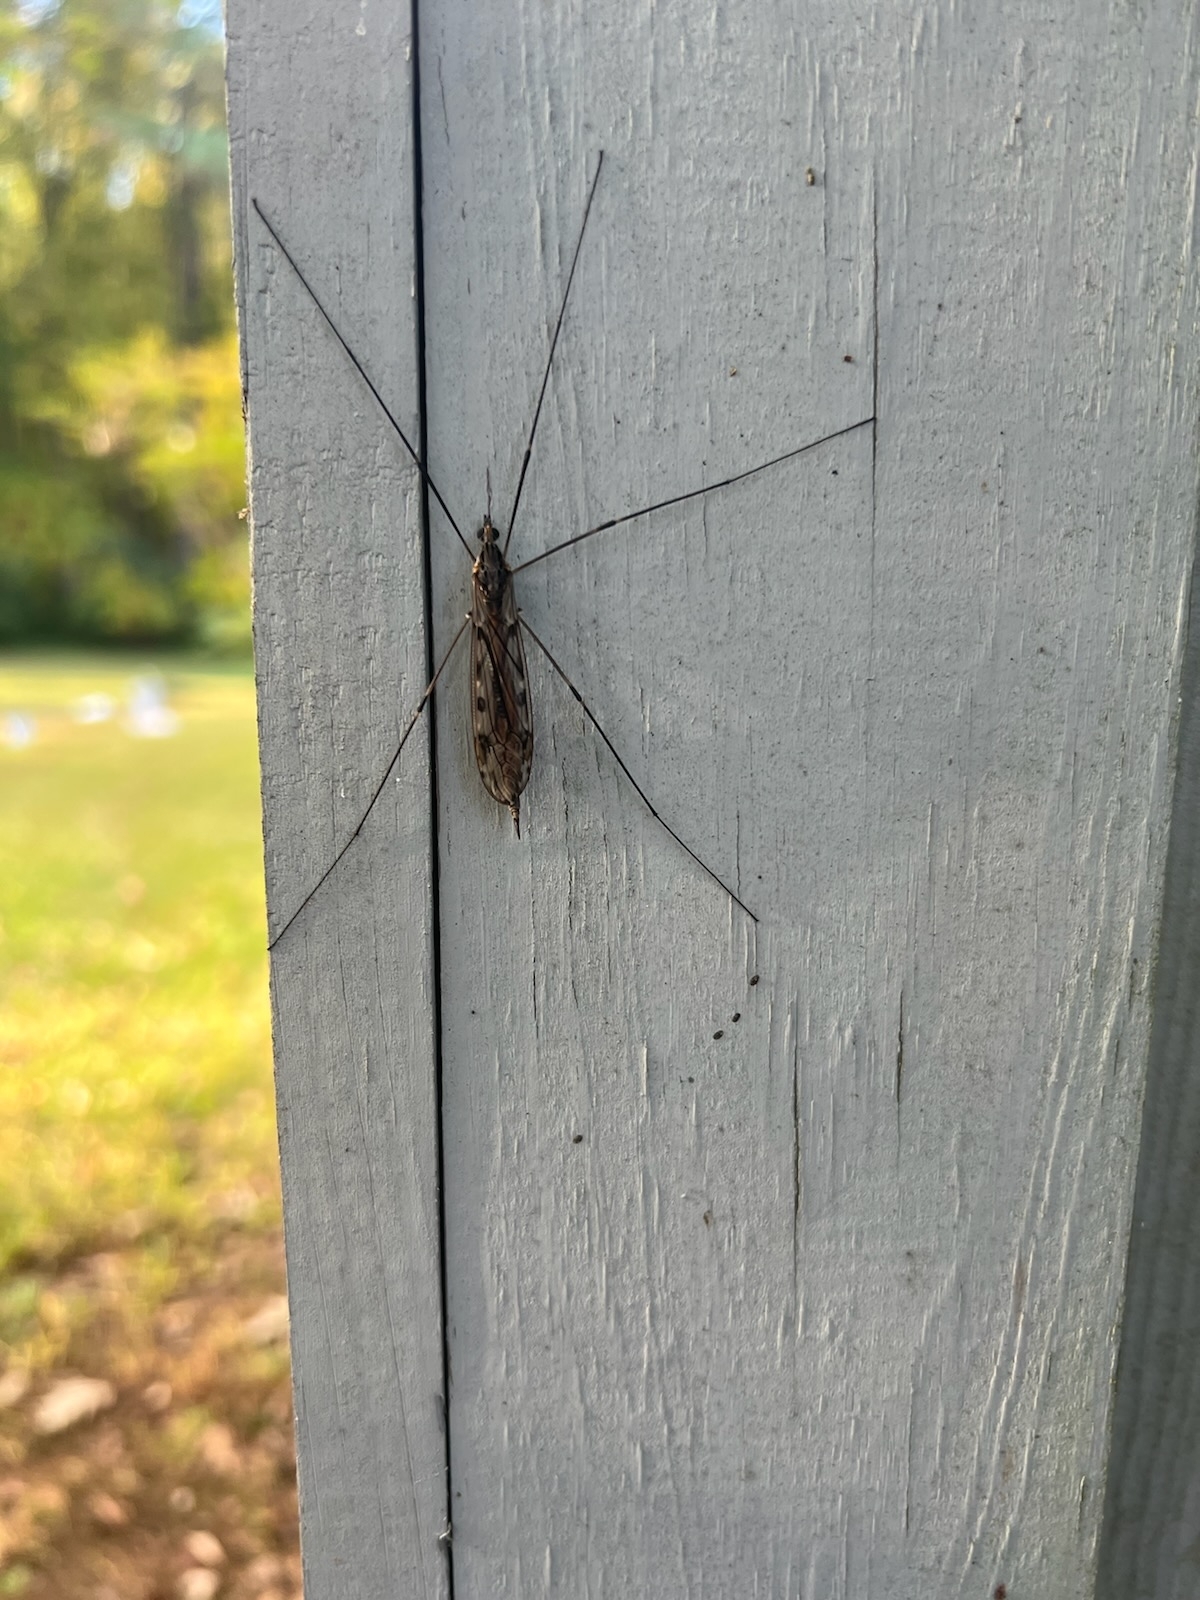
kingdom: Animalia
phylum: Arthropoda
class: Insecta
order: Diptera
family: Tipulidae
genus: Tipula
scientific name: Tipula abdominalis
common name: Giant crane fly
